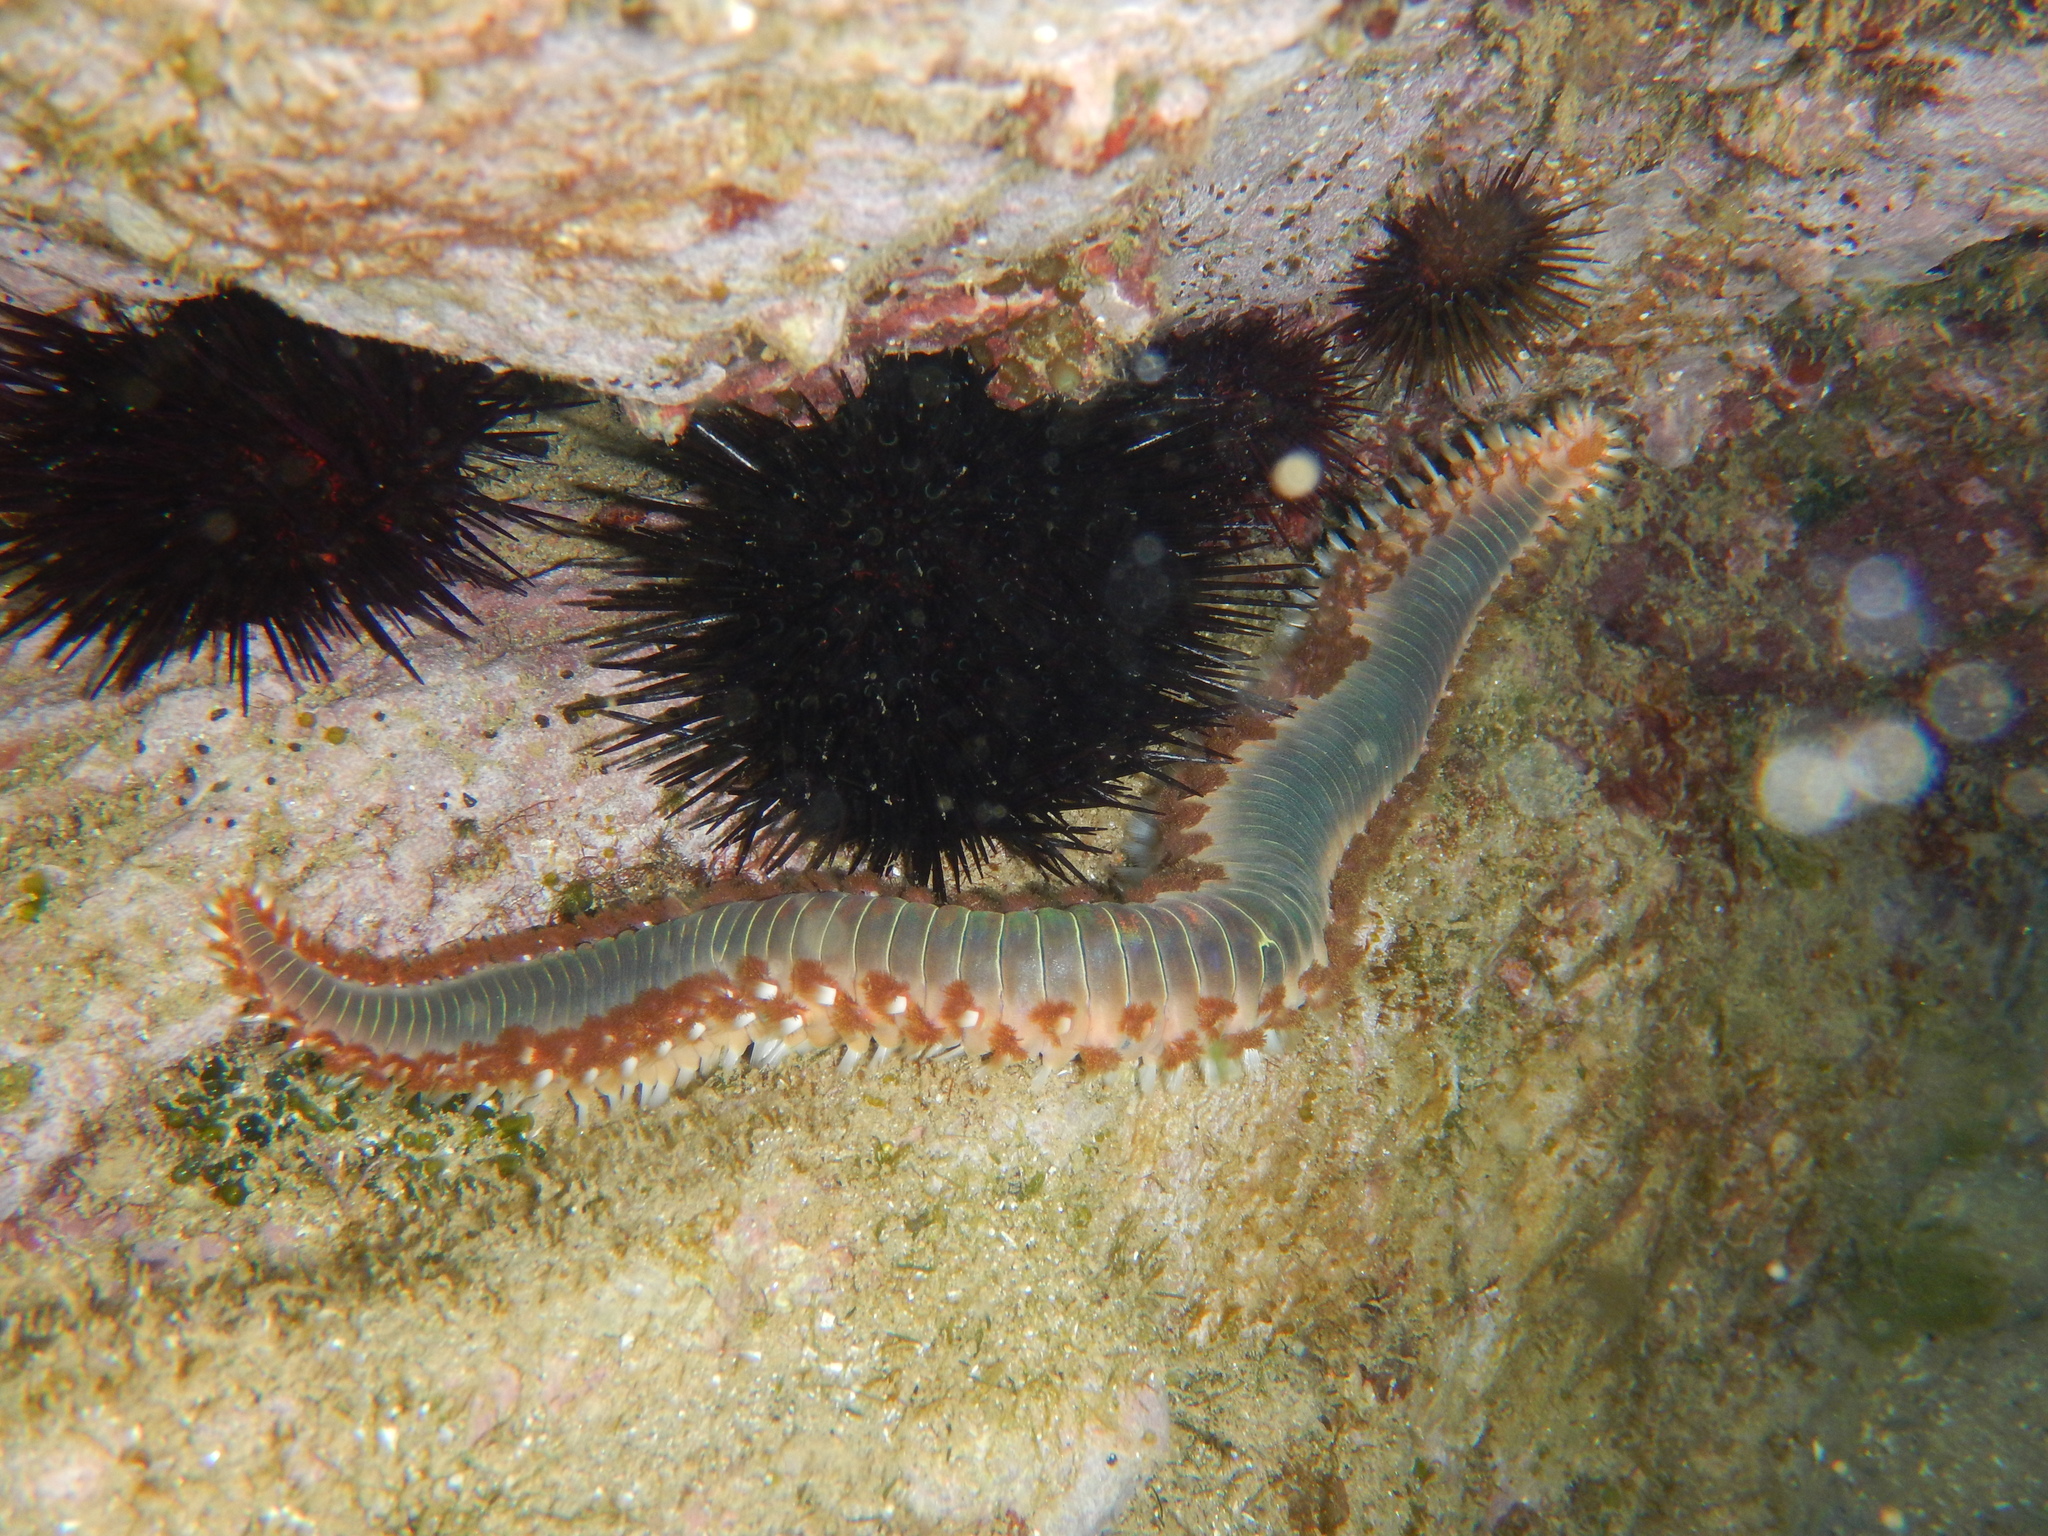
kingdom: Animalia
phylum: Annelida
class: Polychaeta
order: Amphinomida
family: Amphinomidae
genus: Hermodice
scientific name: Hermodice carunculata
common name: Bearded fireworm
